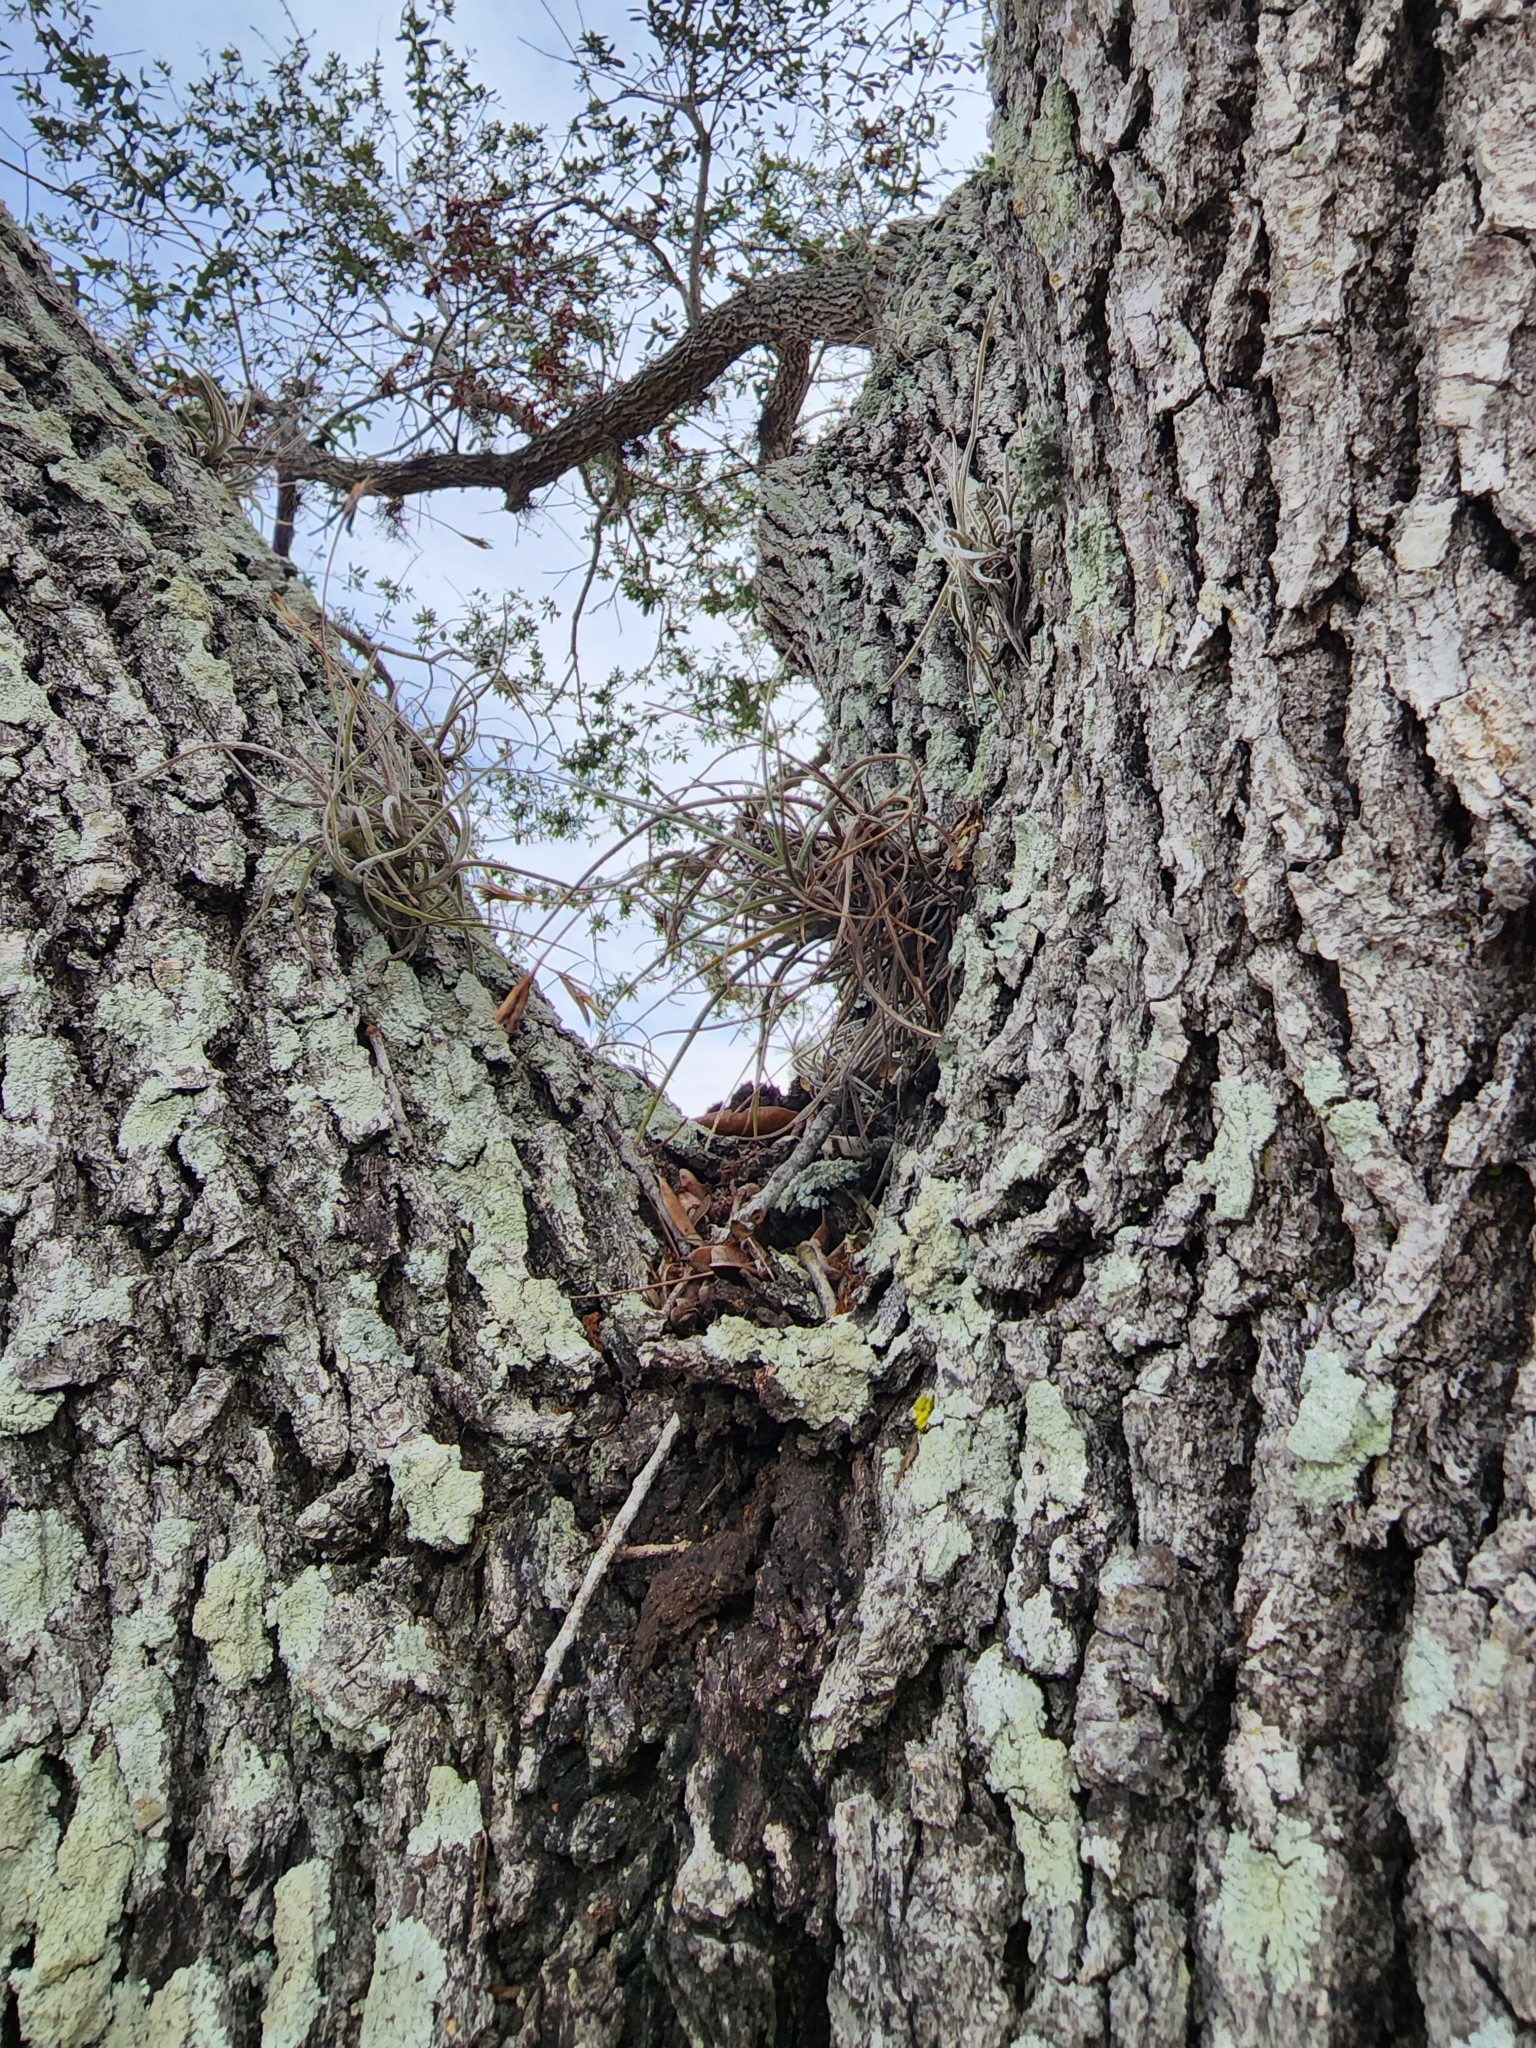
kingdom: Plantae
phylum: Tracheophyta
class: Liliopsida
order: Poales
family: Bromeliaceae
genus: Tillandsia
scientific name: Tillandsia recurvata
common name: Small ballmoss
